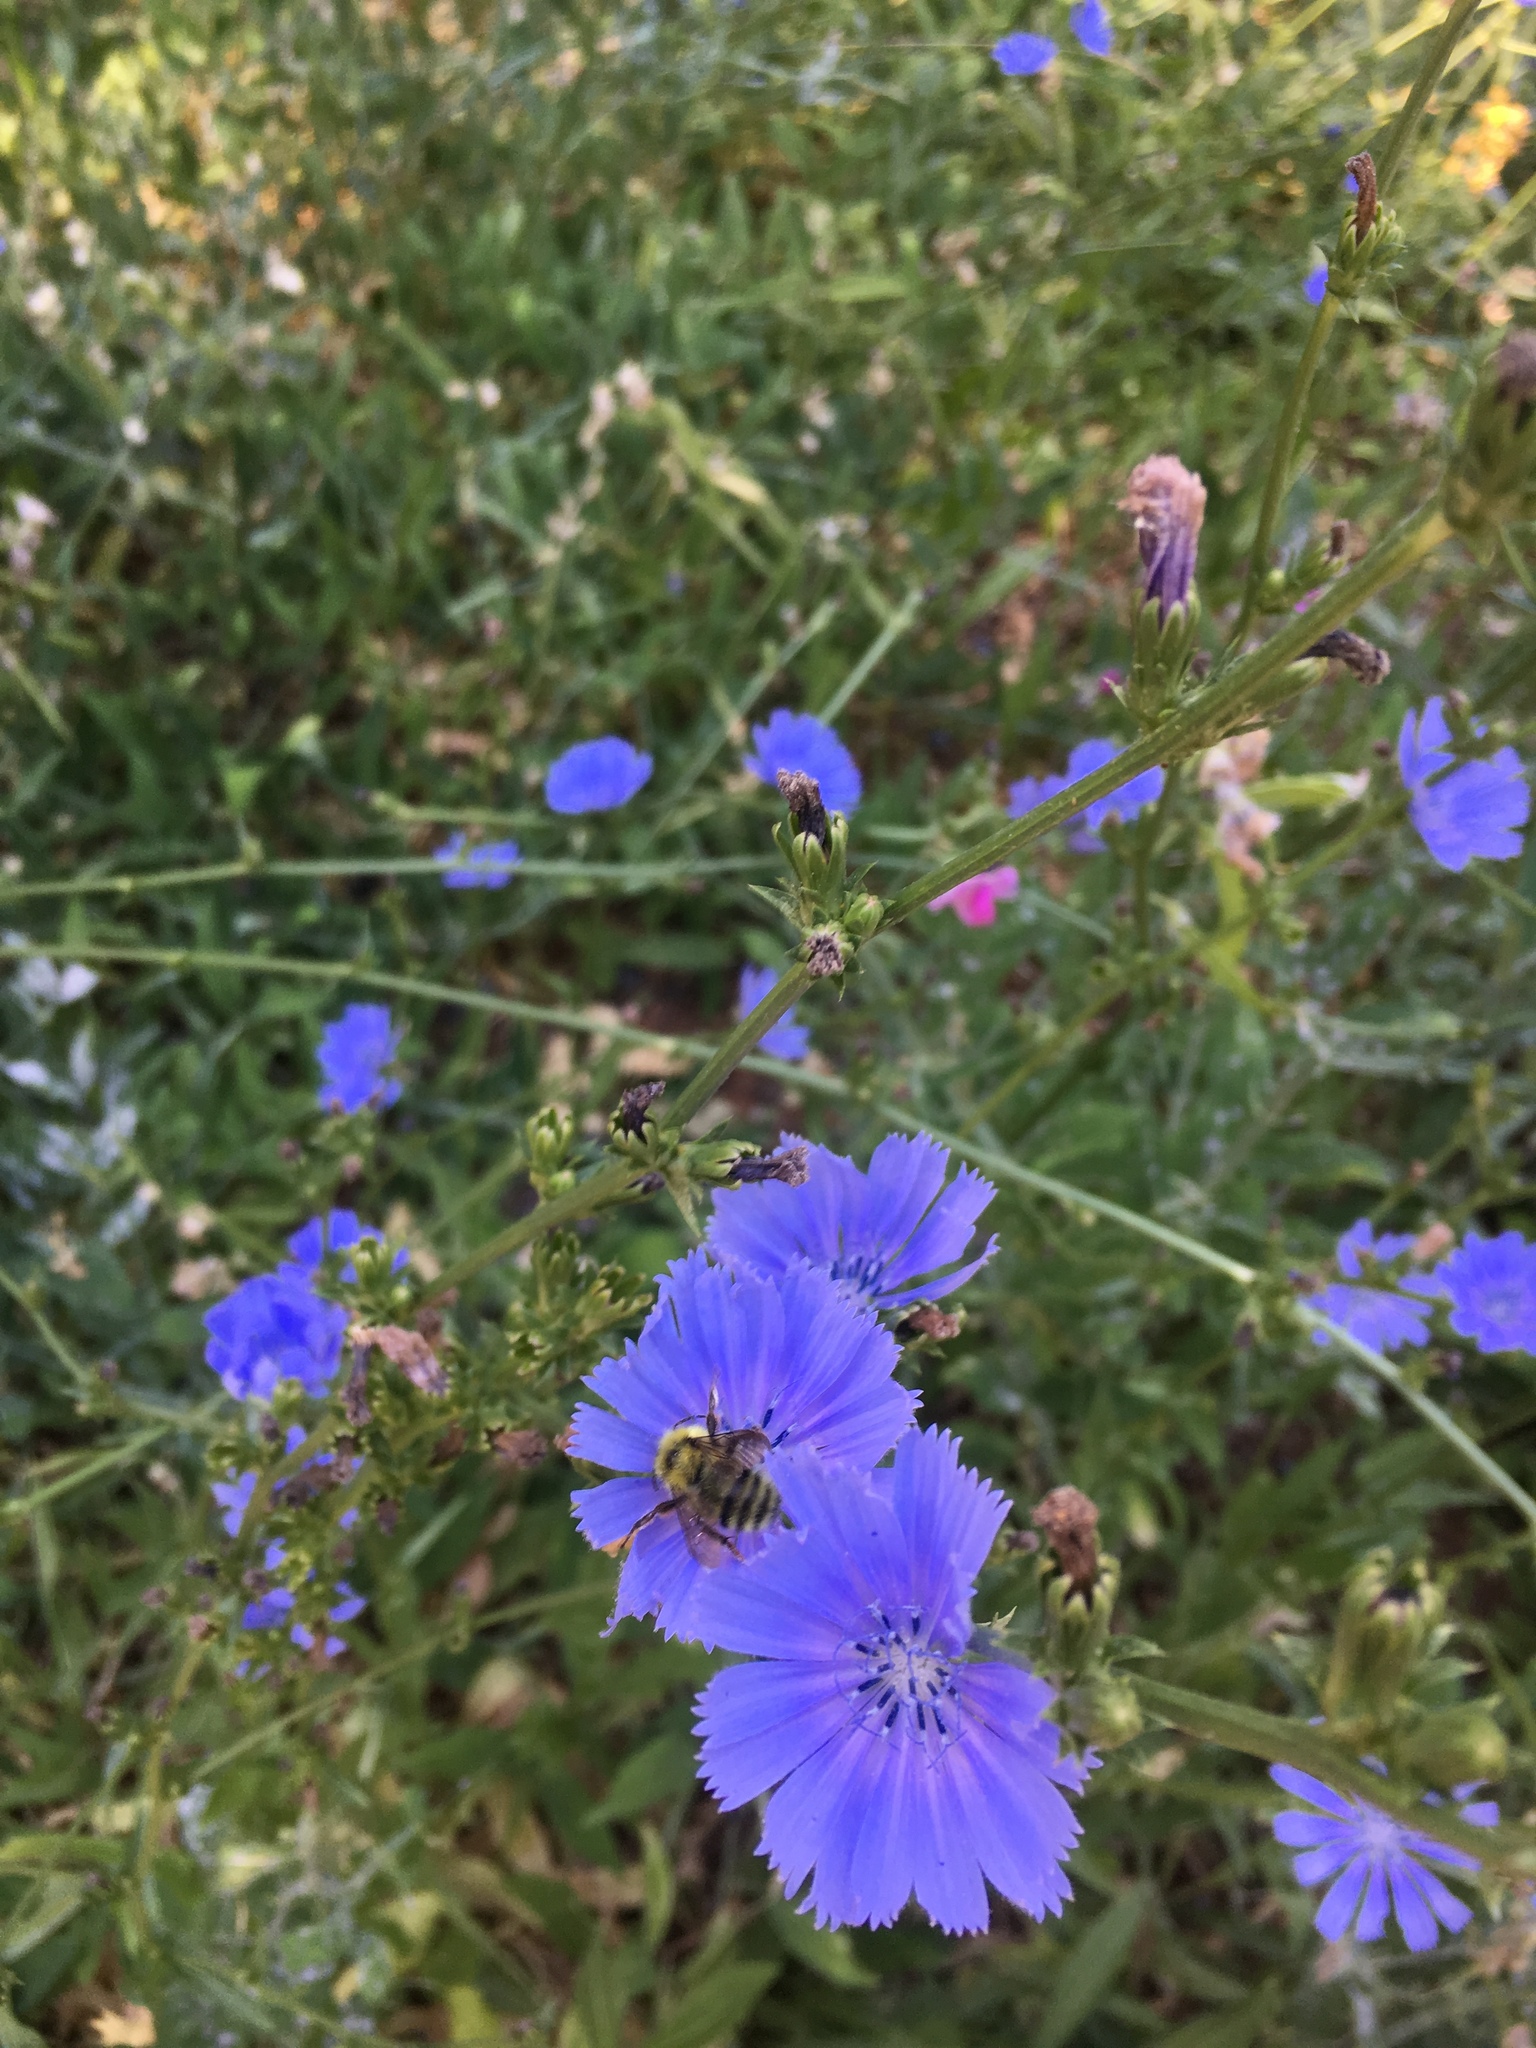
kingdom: Plantae
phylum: Tracheophyta
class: Magnoliopsida
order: Asterales
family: Asteraceae
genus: Cichorium
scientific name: Cichorium intybus
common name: Chicory
